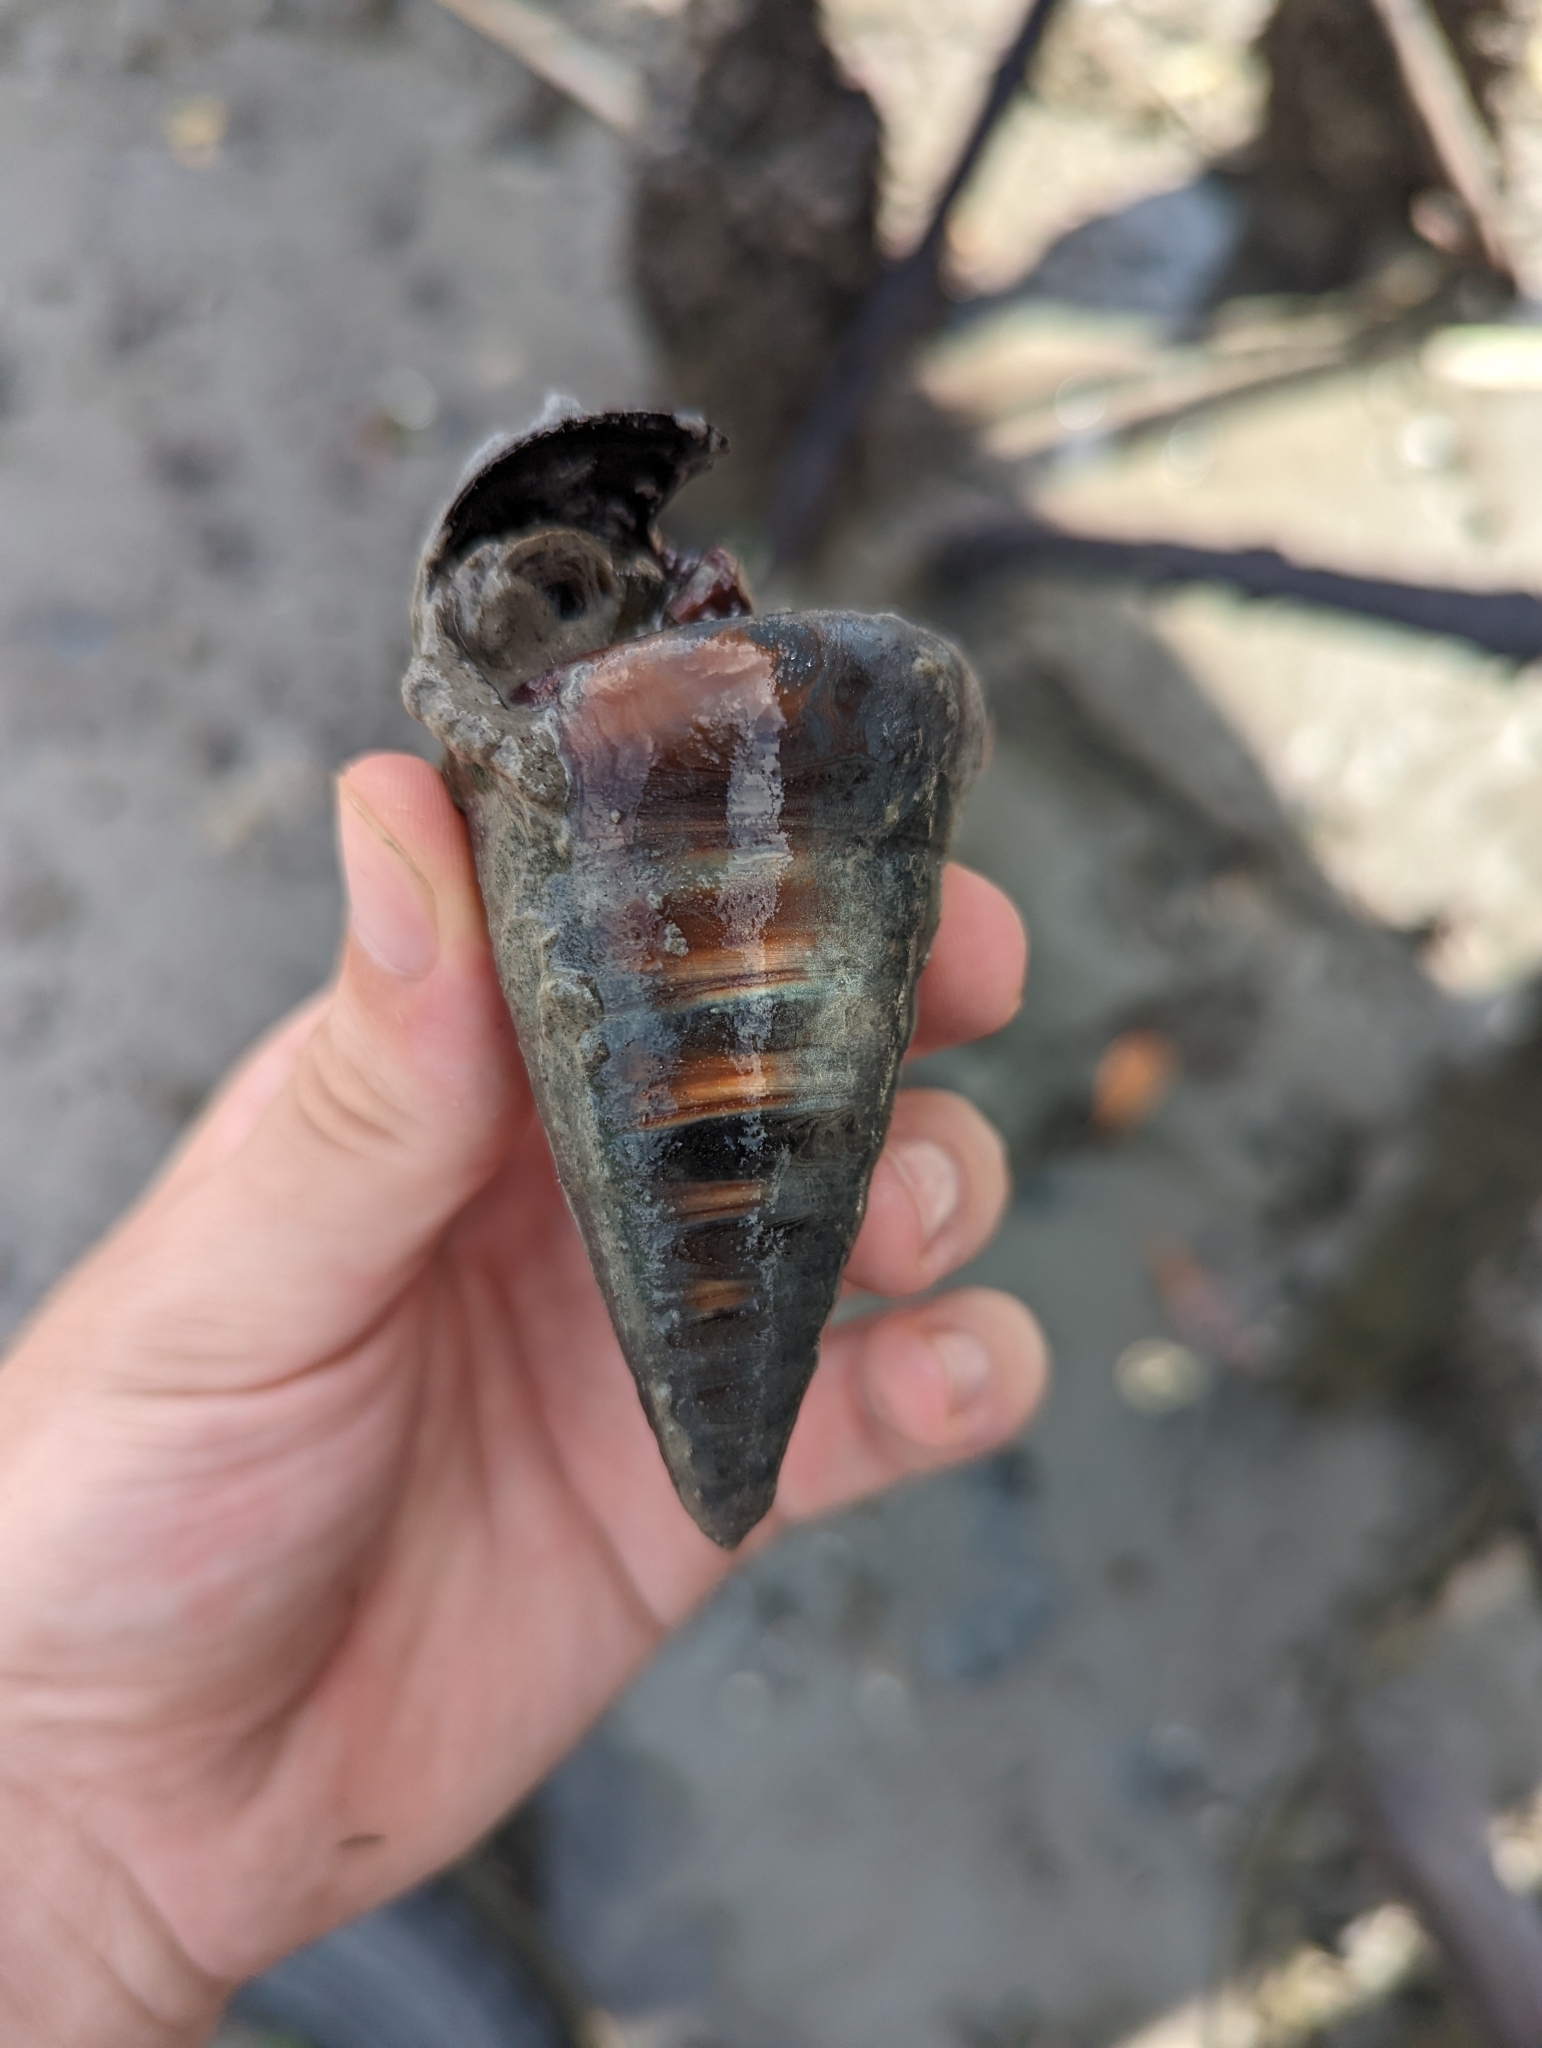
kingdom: Animalia
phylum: Mollusca
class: Gastropoda
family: Potamididae
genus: Telescopium
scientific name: Telescopium telescopium
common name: Telescope creeper
